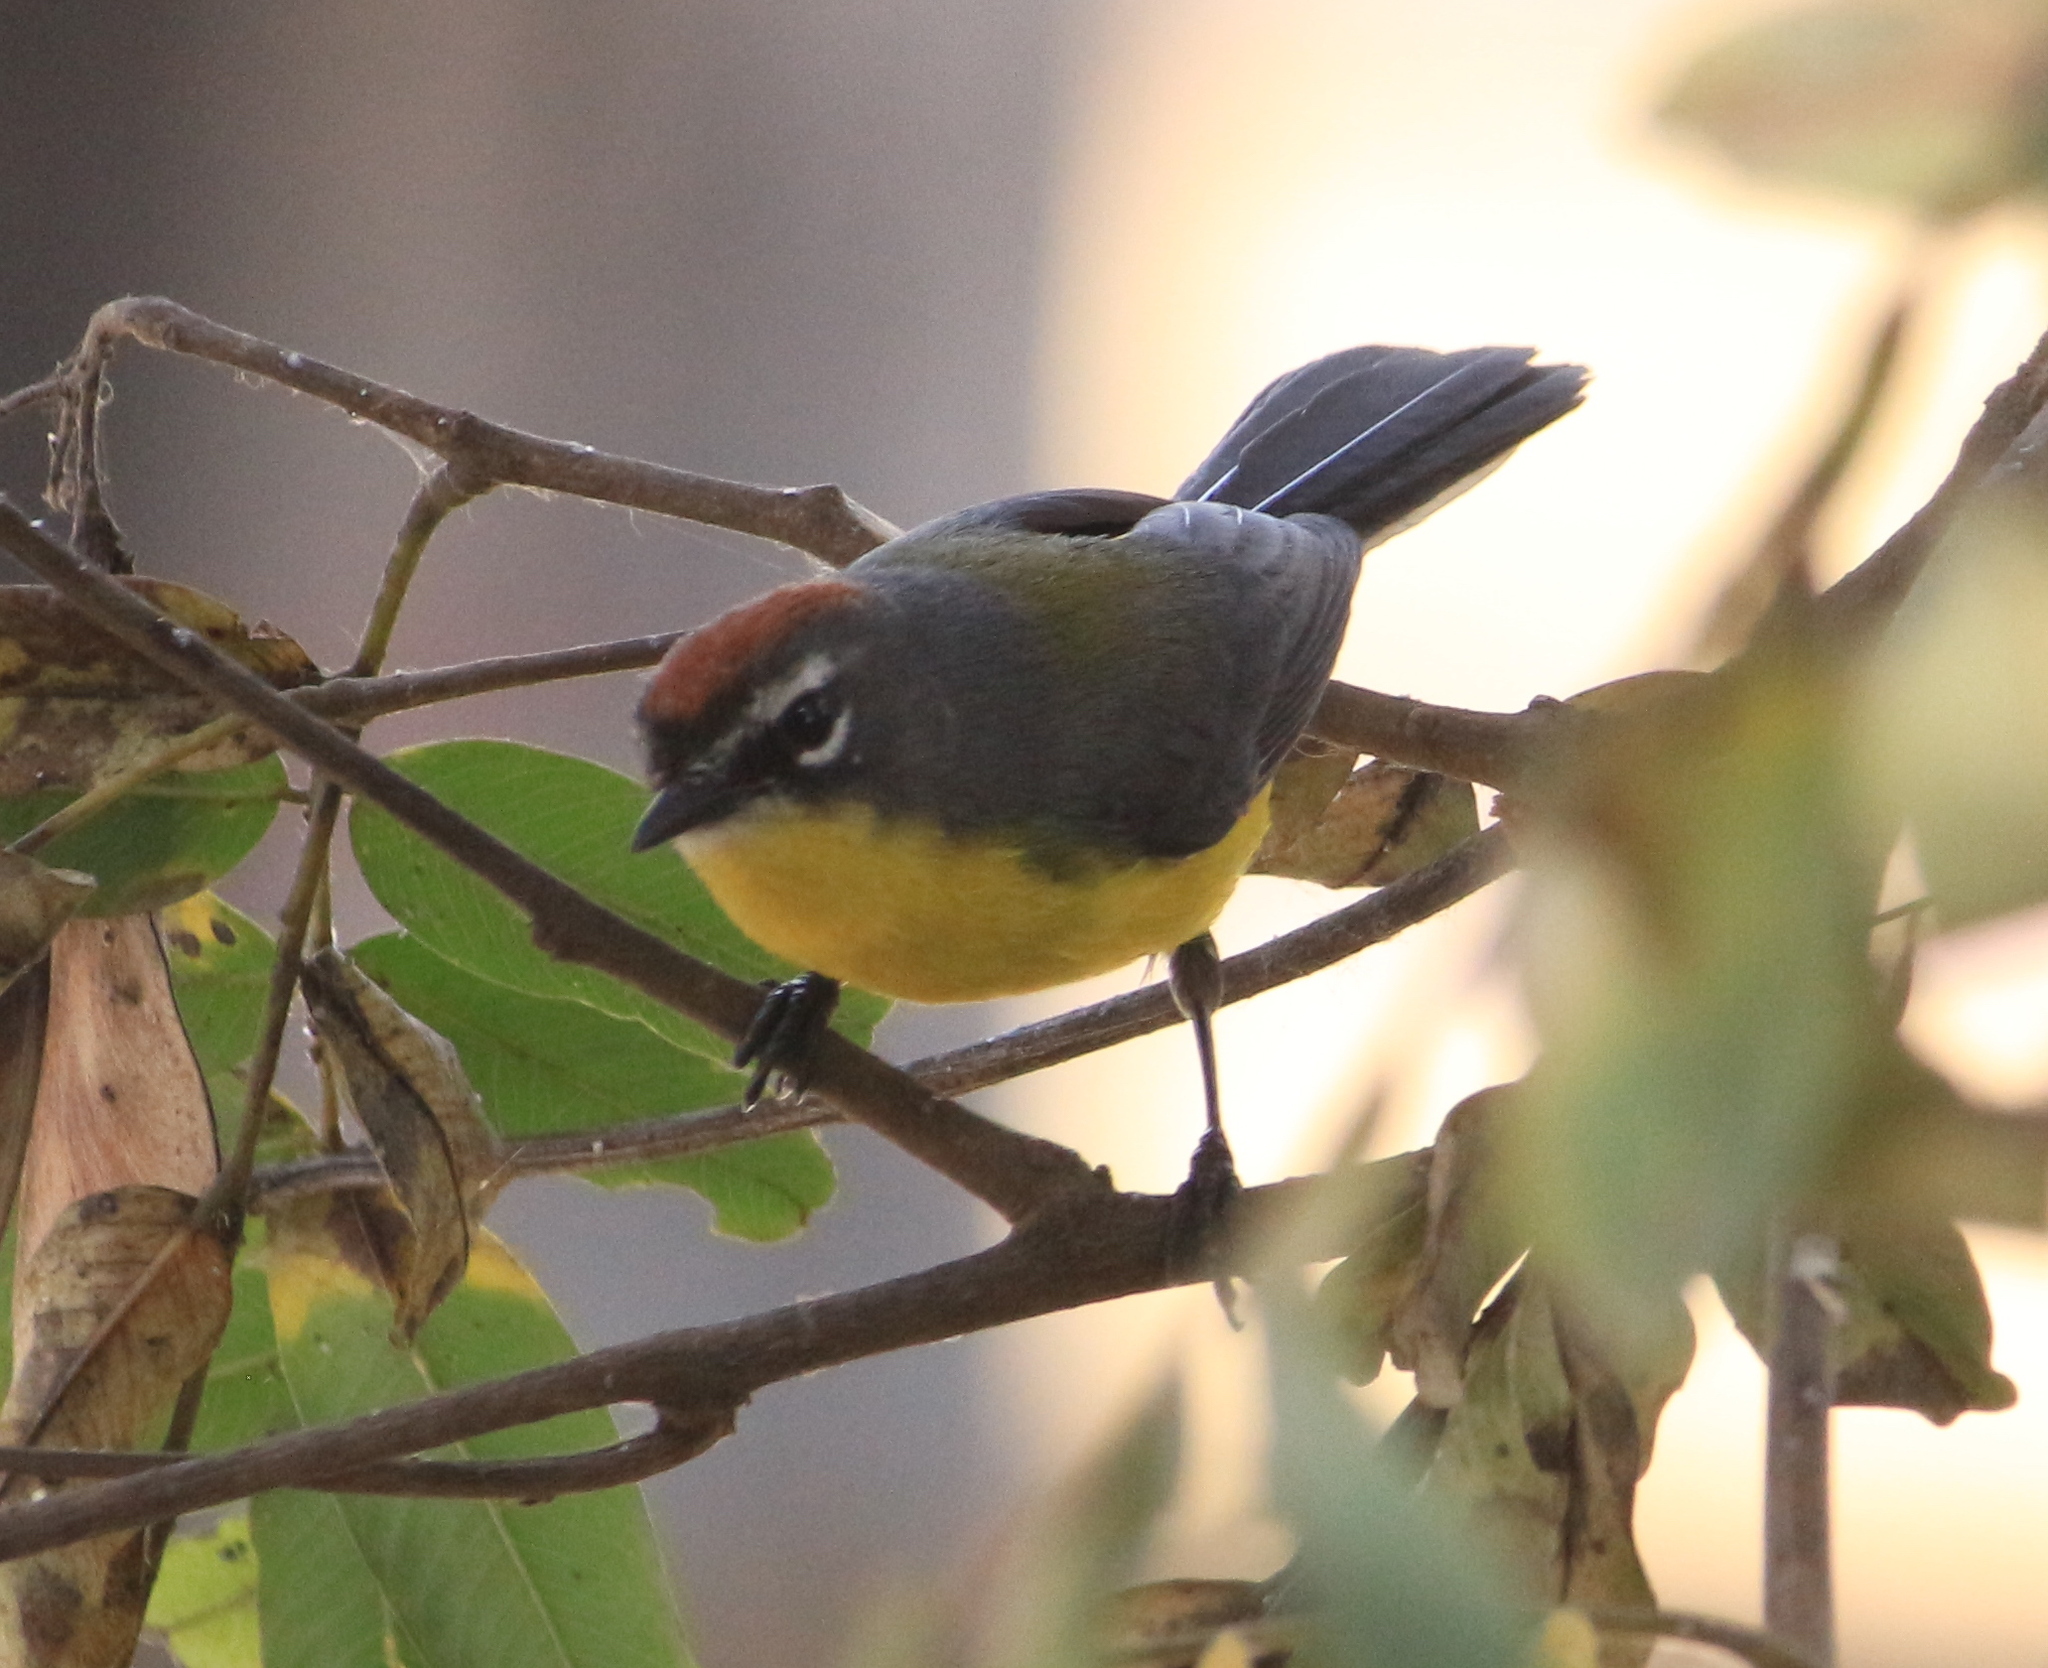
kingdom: Animalia
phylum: Chordata
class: Aves
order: Passeriformes
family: Parulidae
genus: Myioborus
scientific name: Myioborus brunniceps
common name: Brown-capped whitestart
